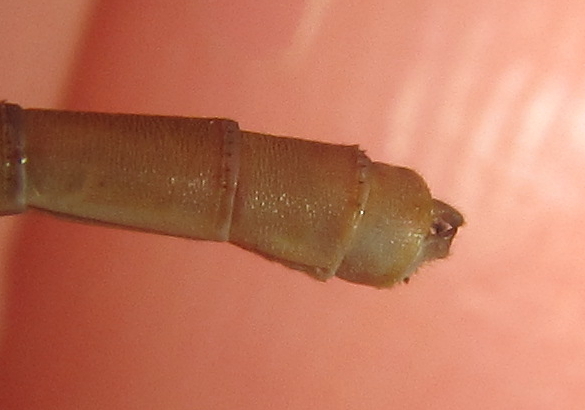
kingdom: Animalia
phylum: Arthropoda
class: Insecta
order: Odonata
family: Coenagrionidae
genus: Ceriagrion
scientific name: Ceriagrion suave
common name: Plain waxtail
